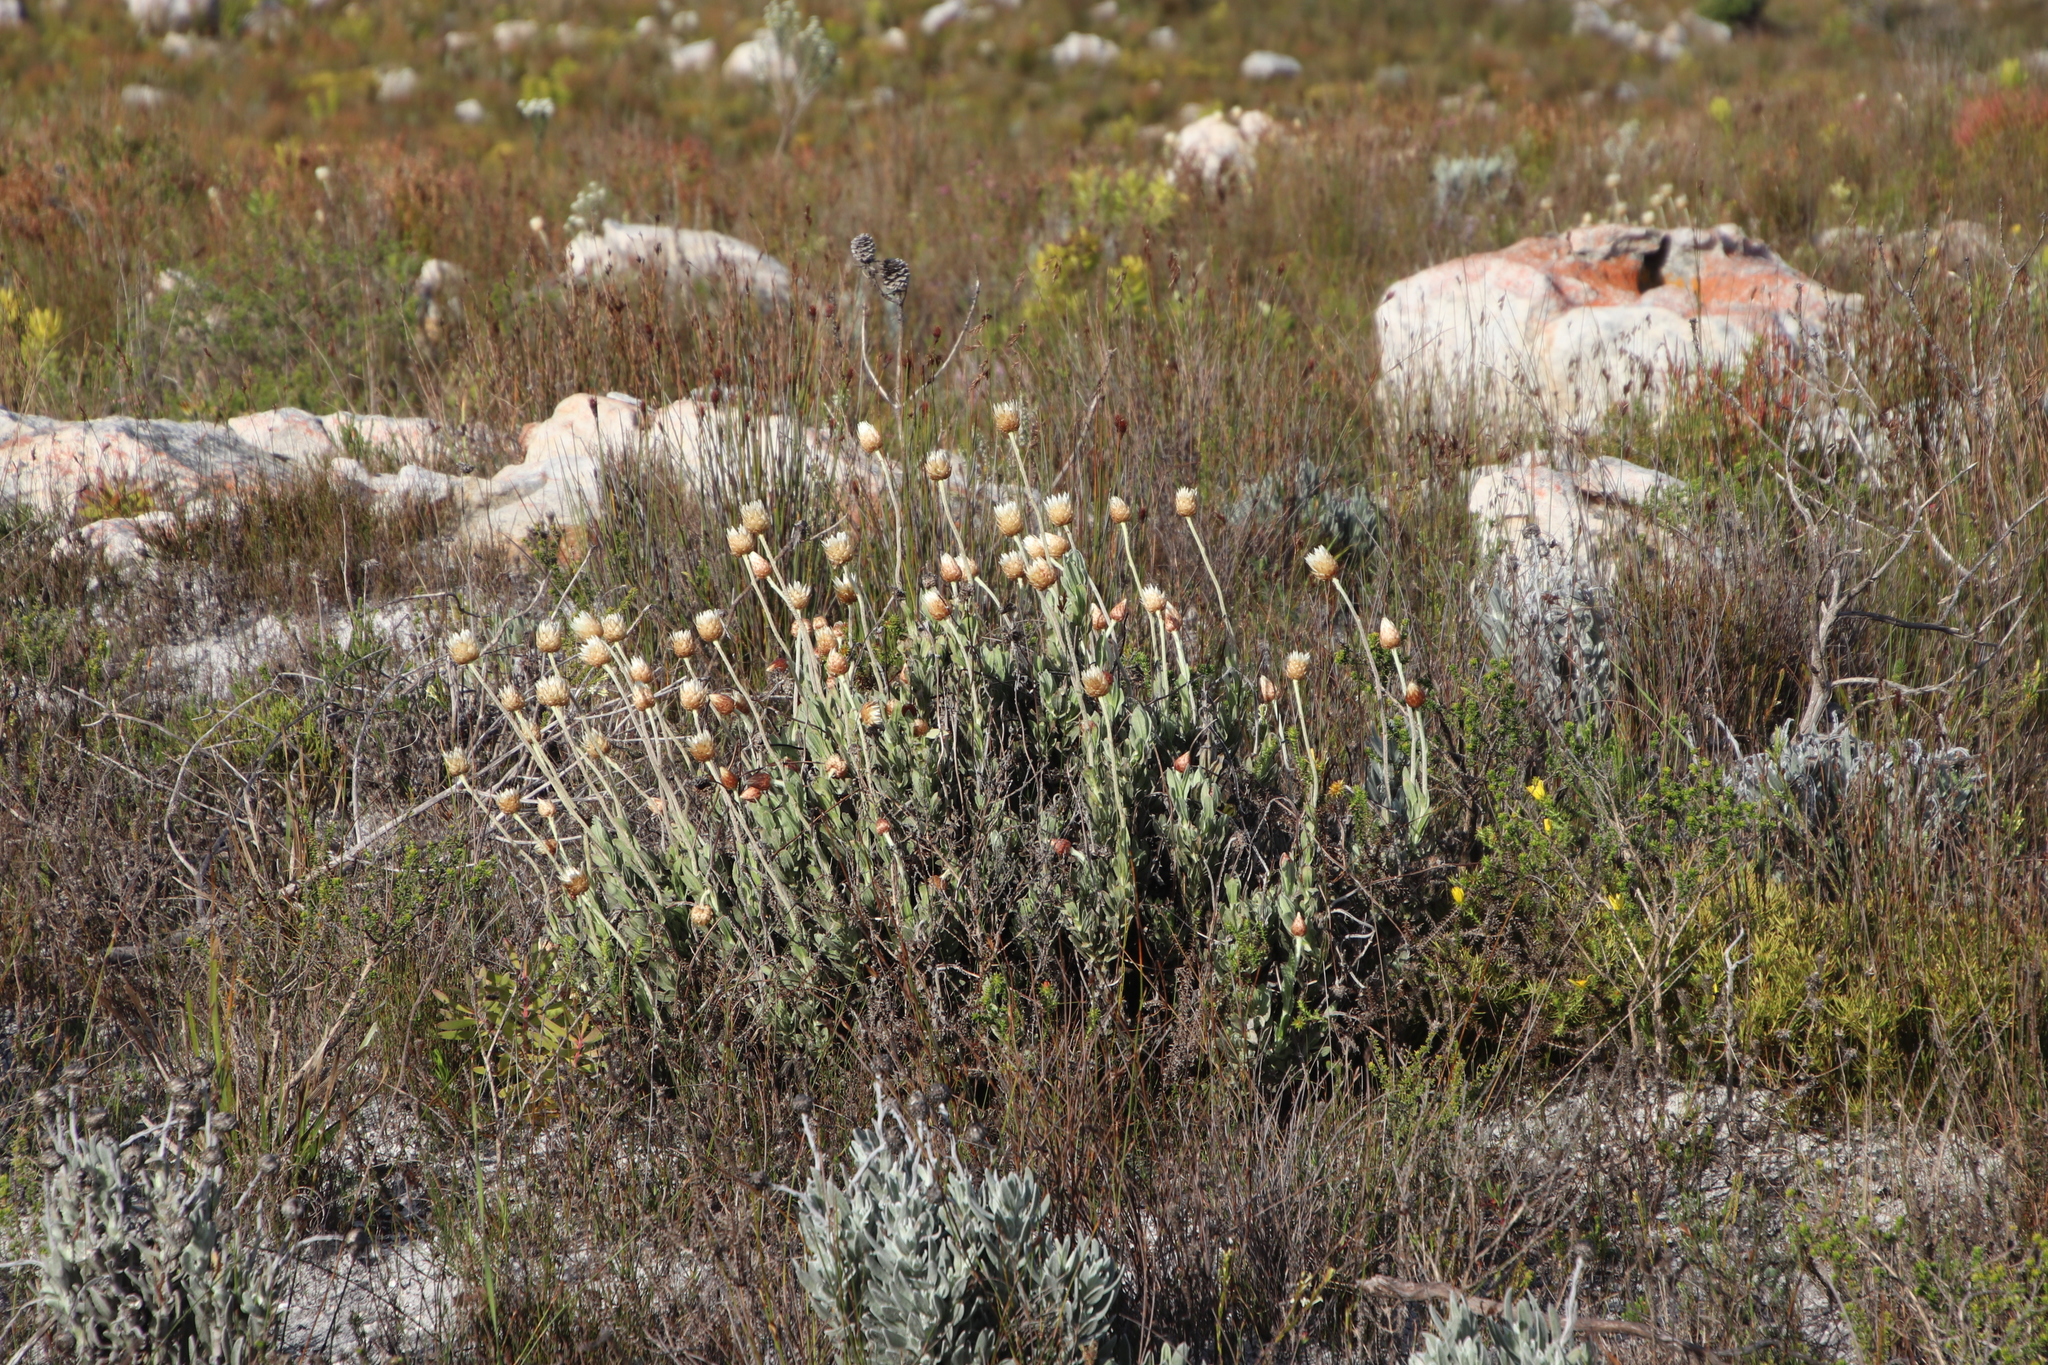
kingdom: Plantae
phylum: Tracheophyta
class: Magnoliopsida
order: Asterales
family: Asteraceae
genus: Syncarpha
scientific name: Syncarpha speciosissima
